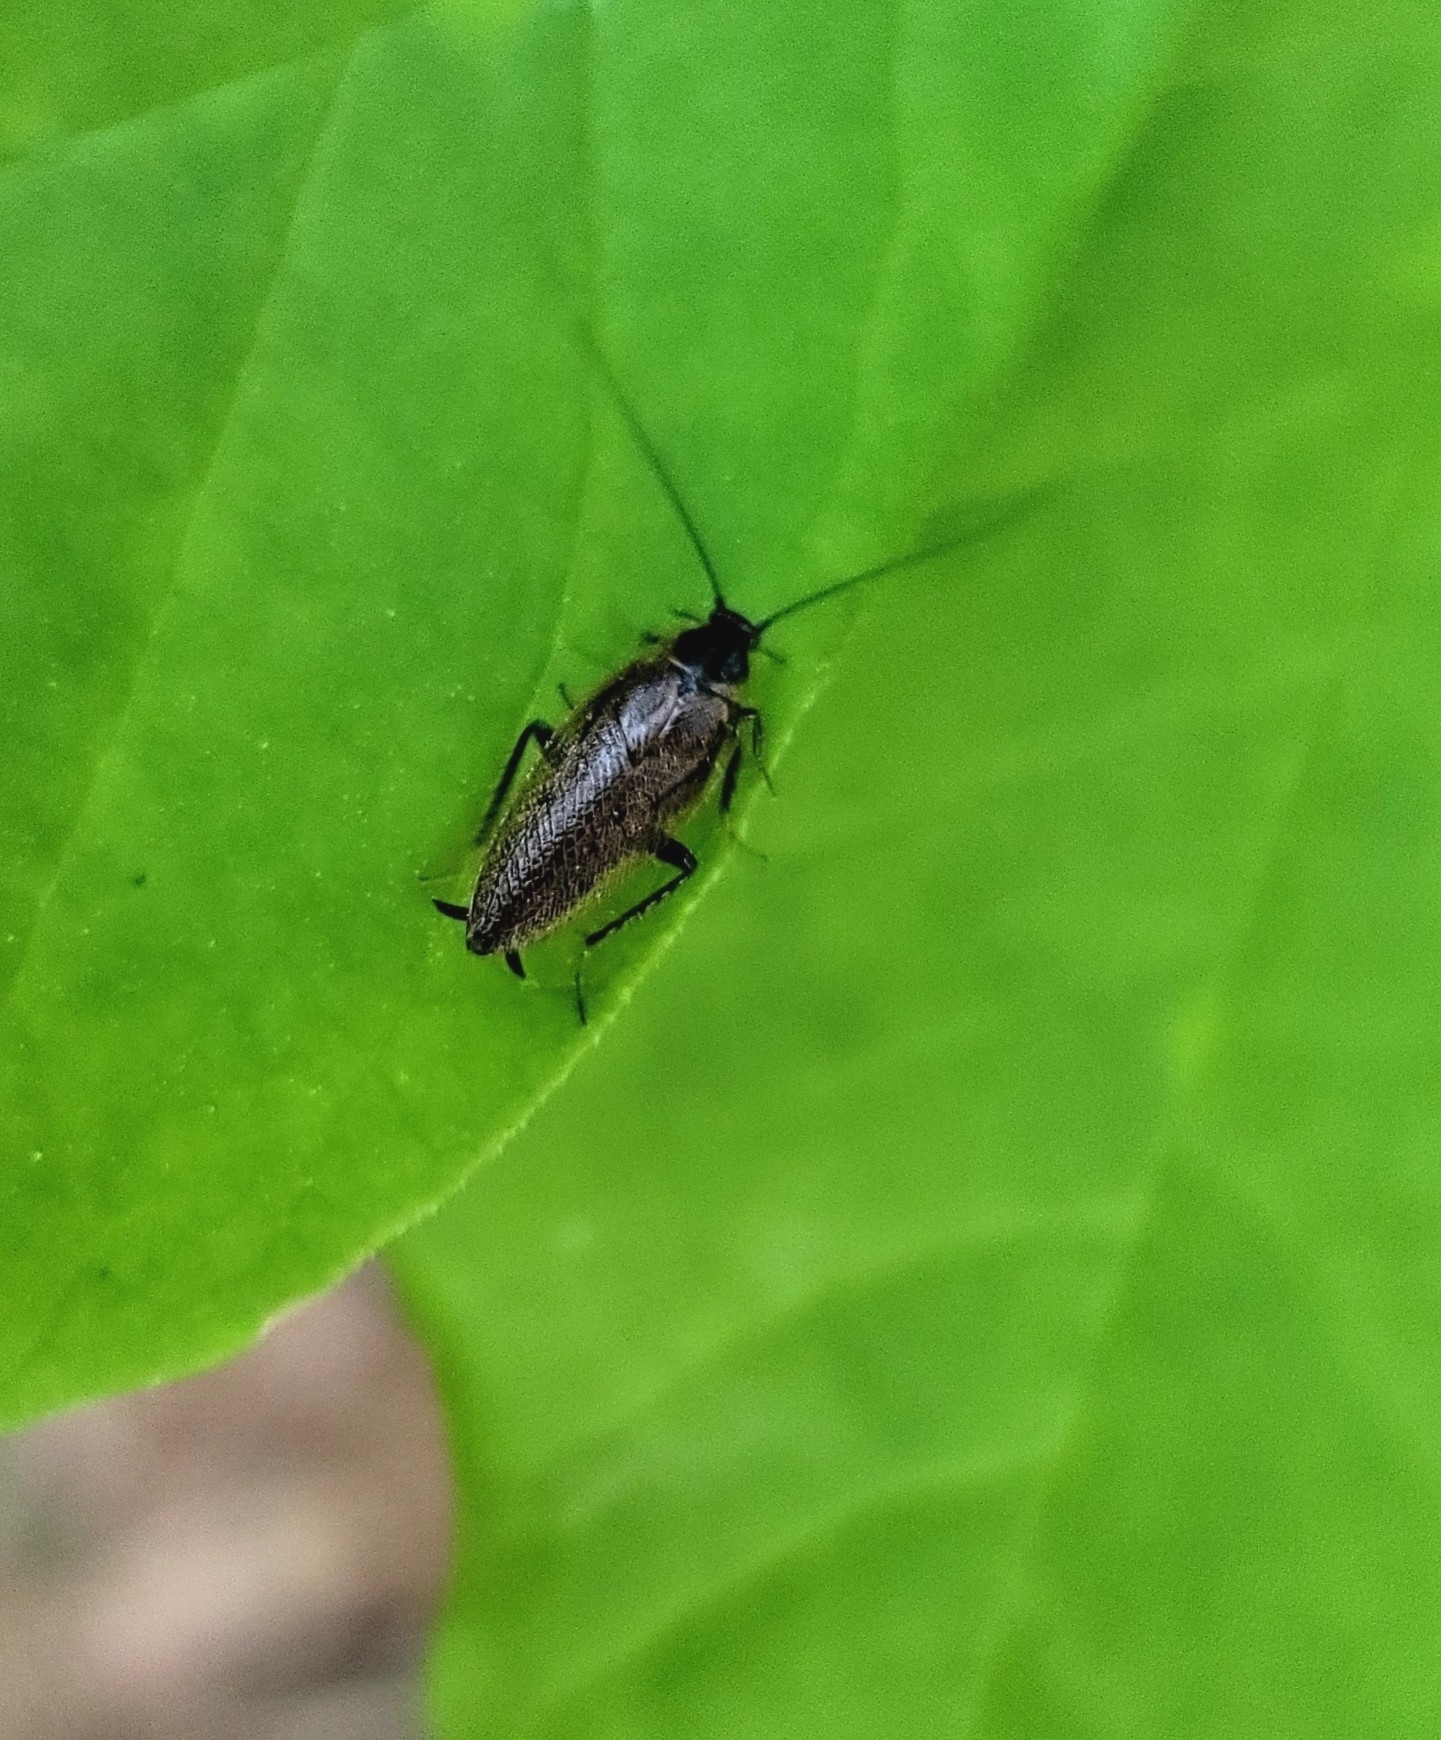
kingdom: Animalia
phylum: Arthropoda
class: Insecta
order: Blattodea
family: Ectobiidae
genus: Ectobius
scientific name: Ectobius lapponicus
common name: Dusky cockroach
